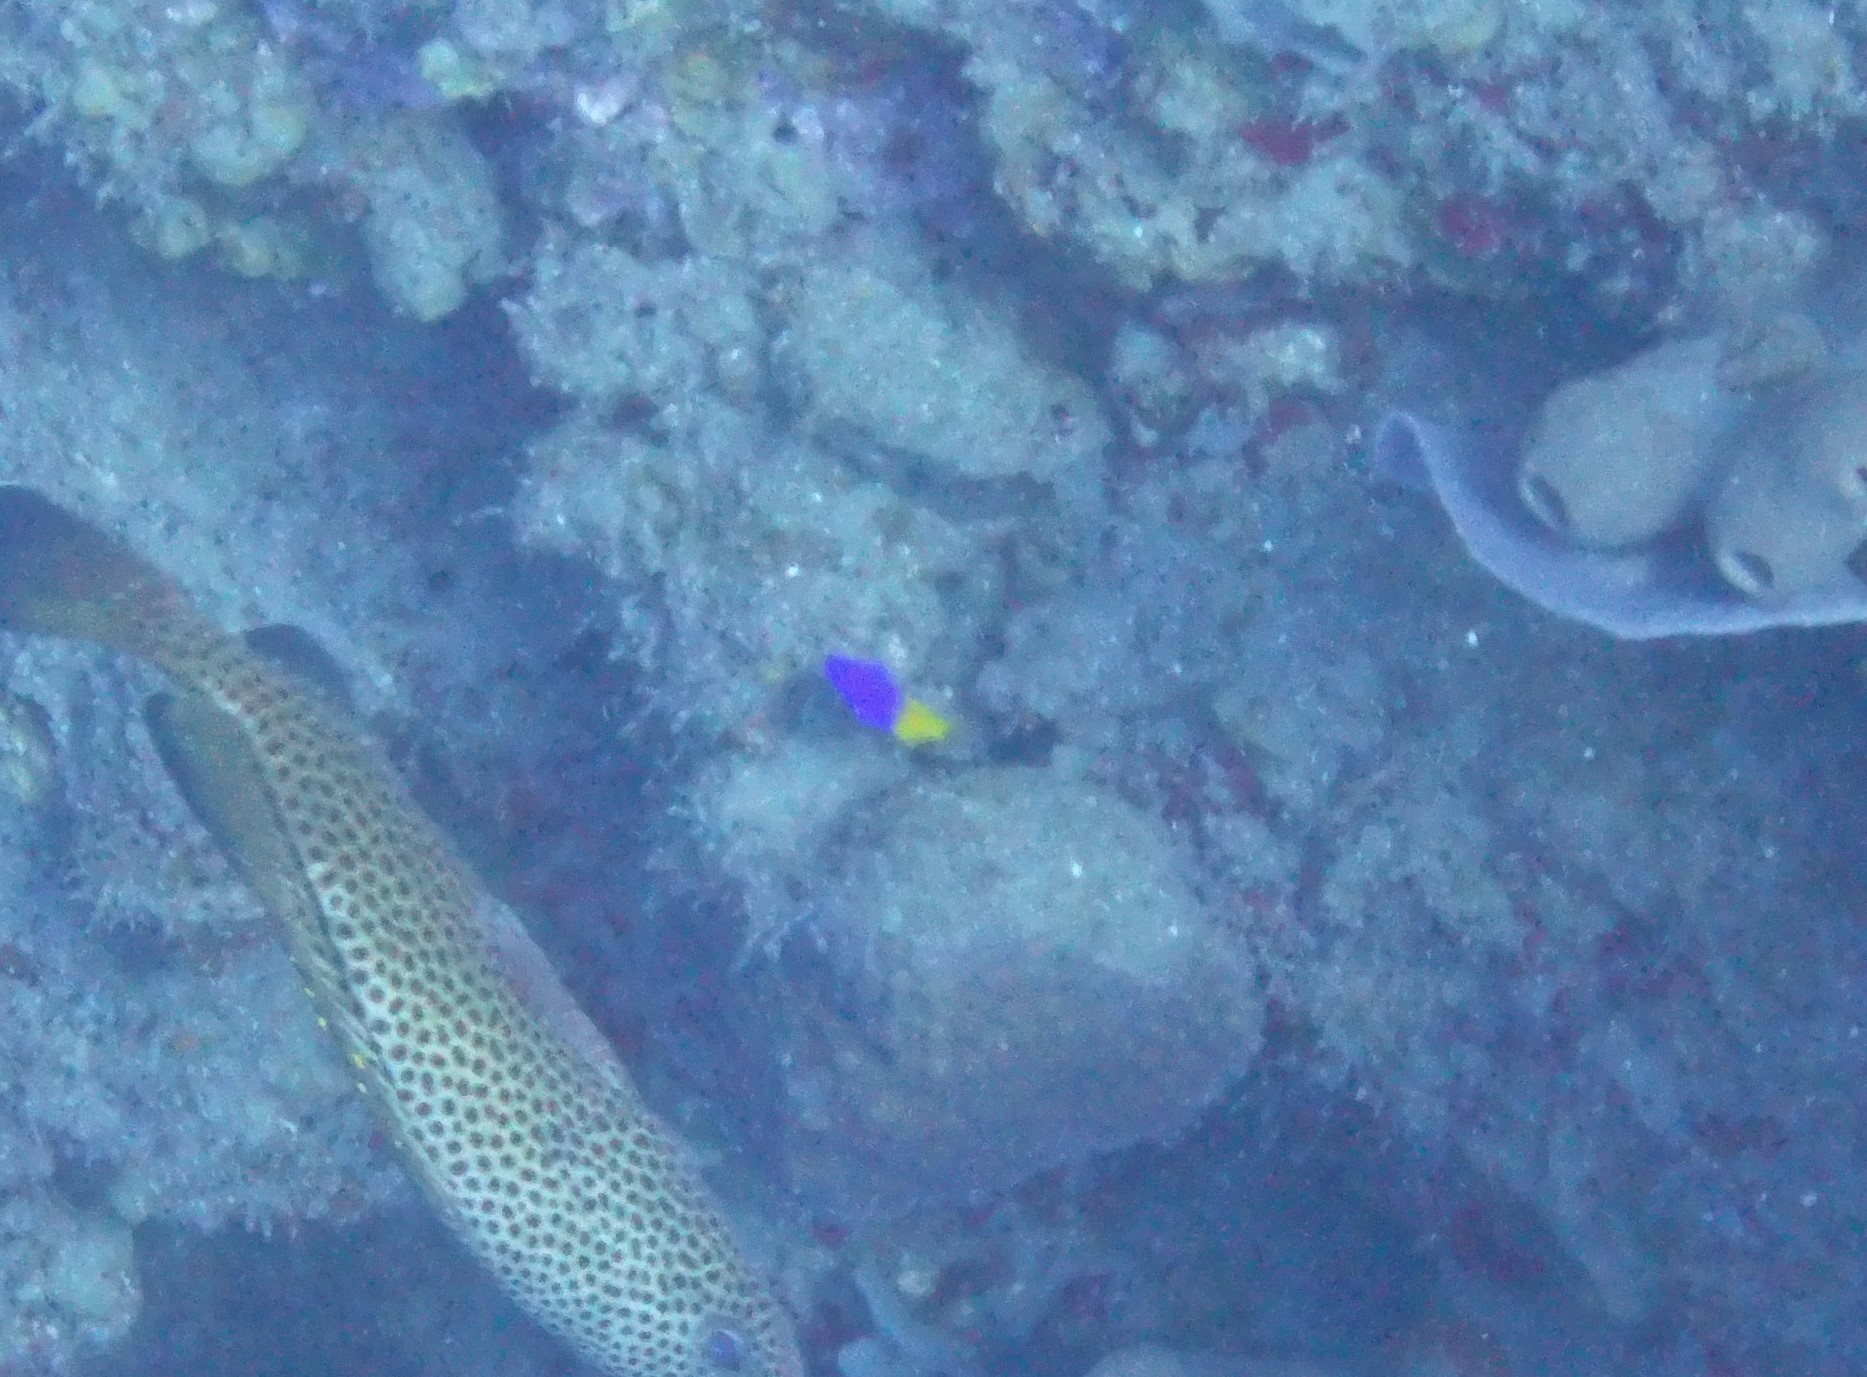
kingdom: Animalia
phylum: Chordata
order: Perciformes
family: Grammatidae
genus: Gramma
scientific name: Gramma loreto
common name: Fairy basslet
